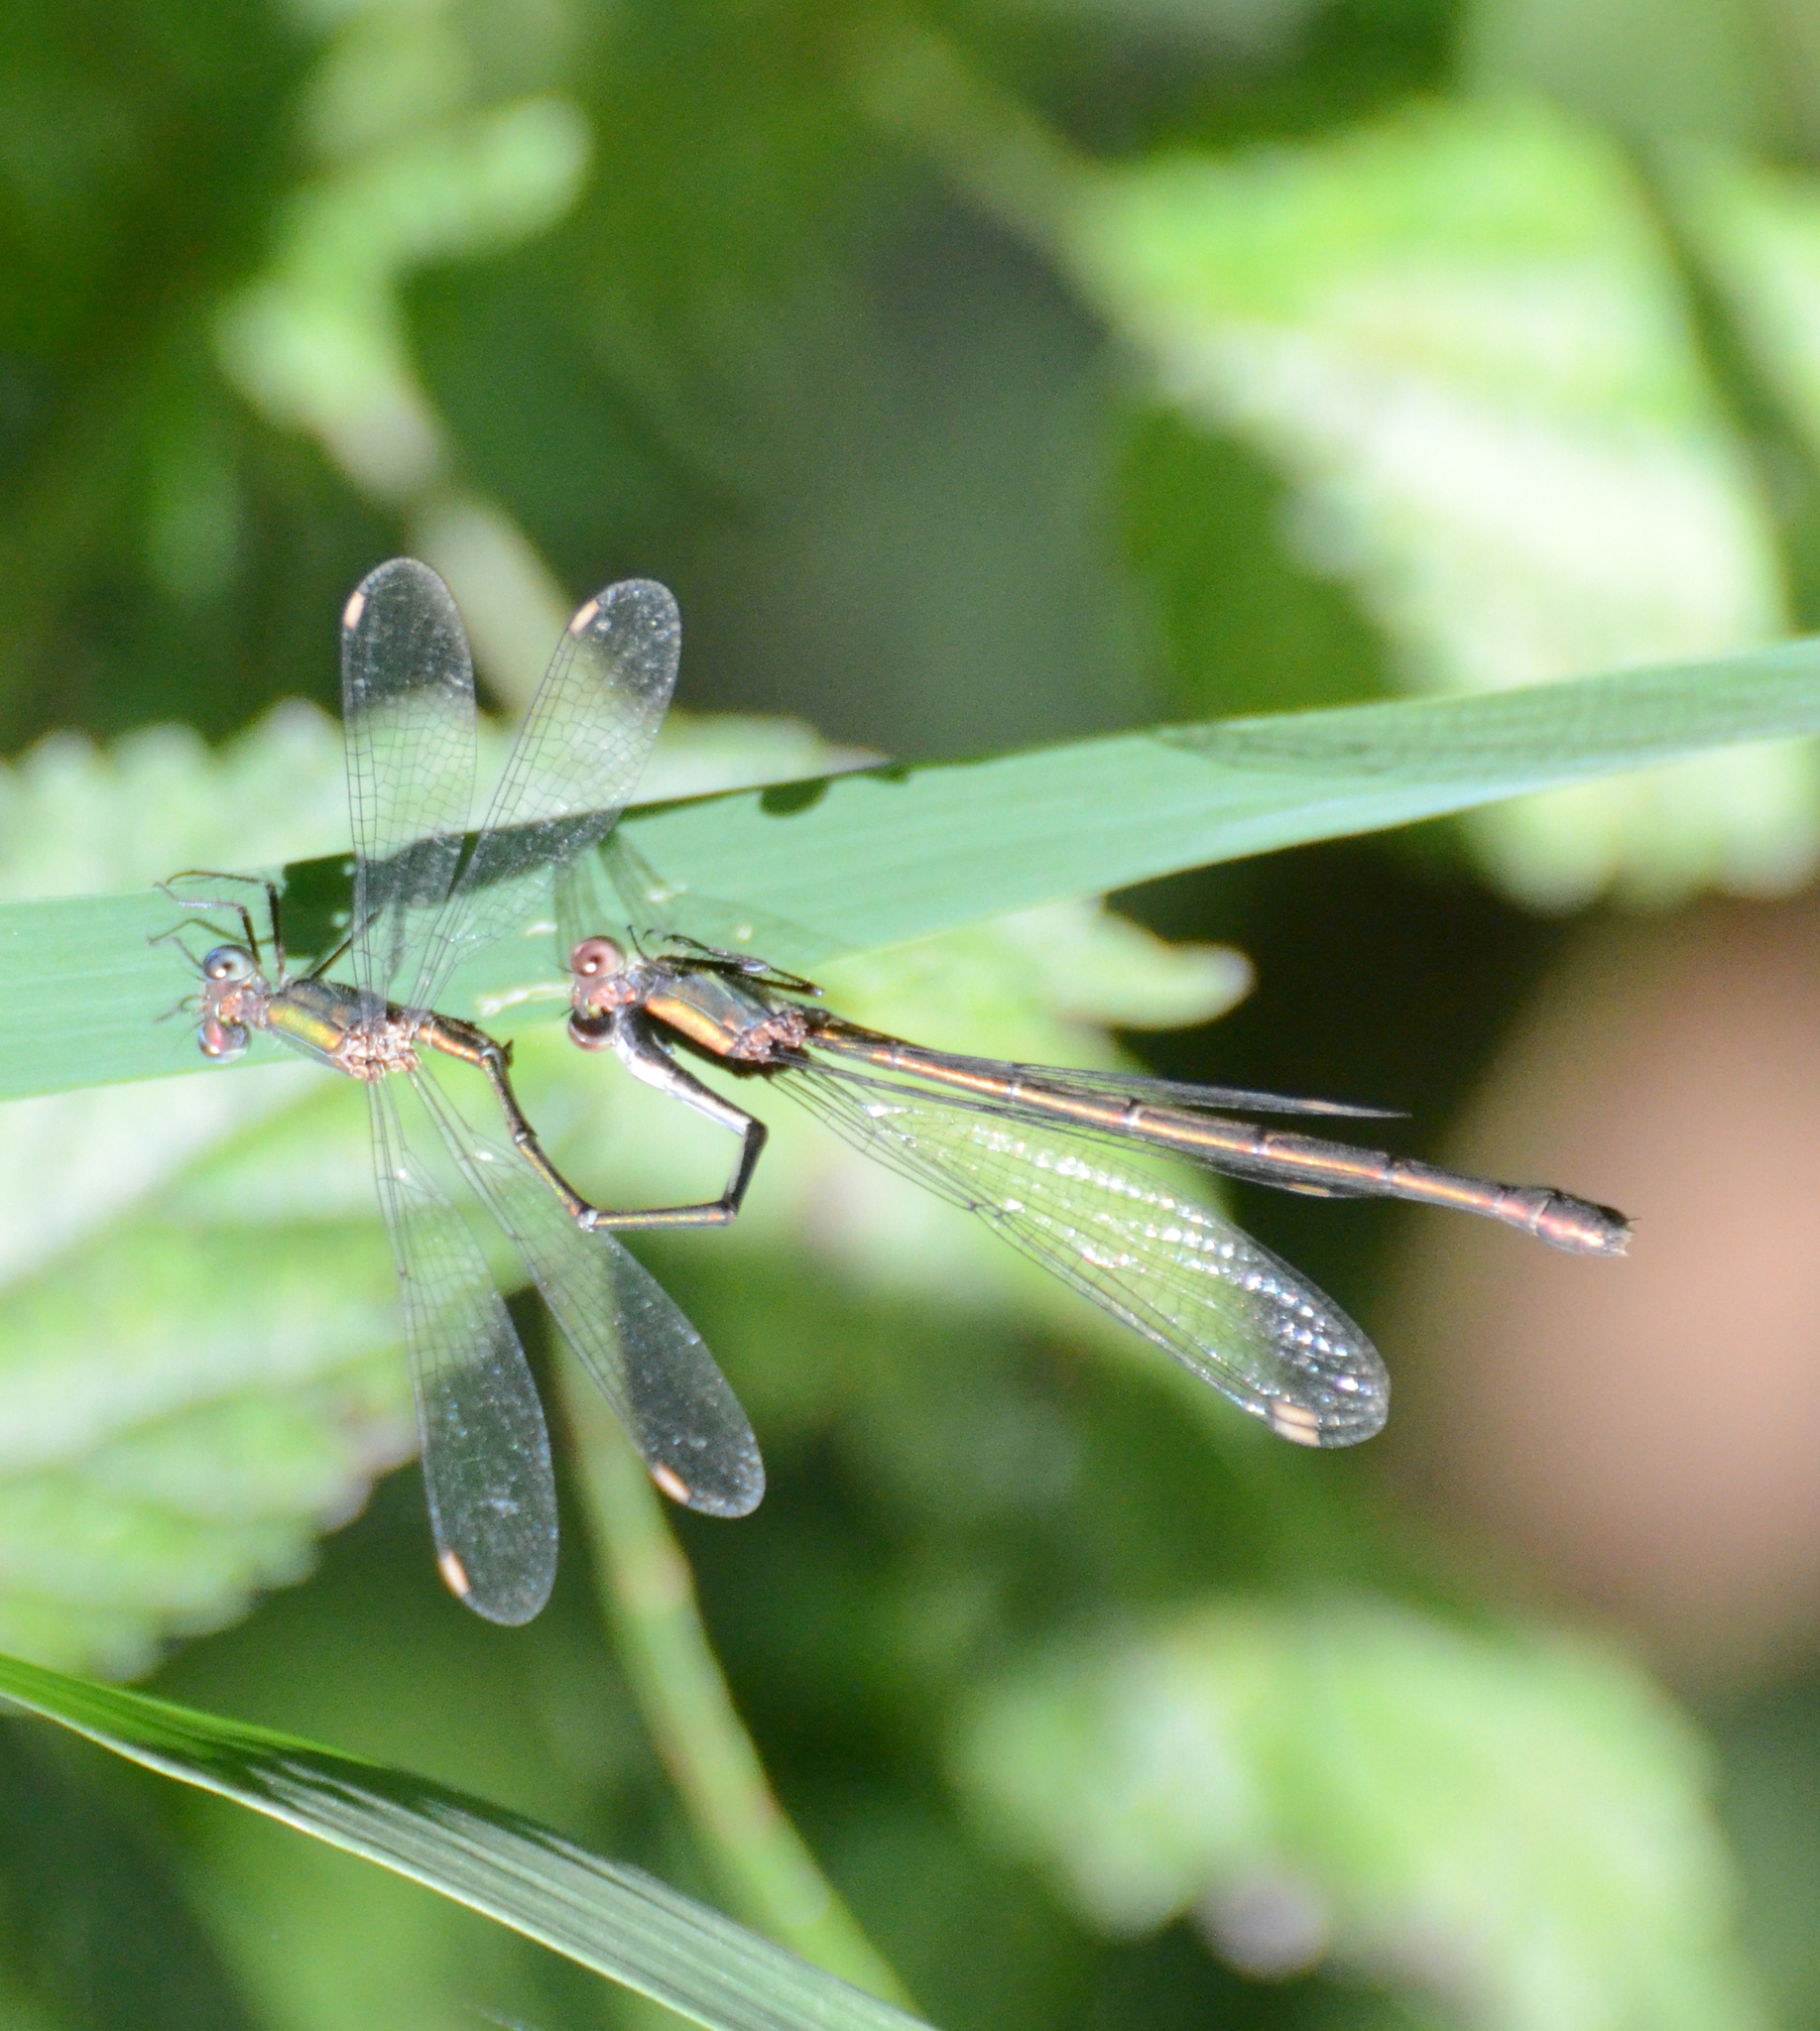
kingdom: Animalia
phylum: Arthropoda
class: Insecta
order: Odonata
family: Lestidae
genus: Chalcolestes
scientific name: Chalcolestes viridis
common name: Green emerald damselfly
